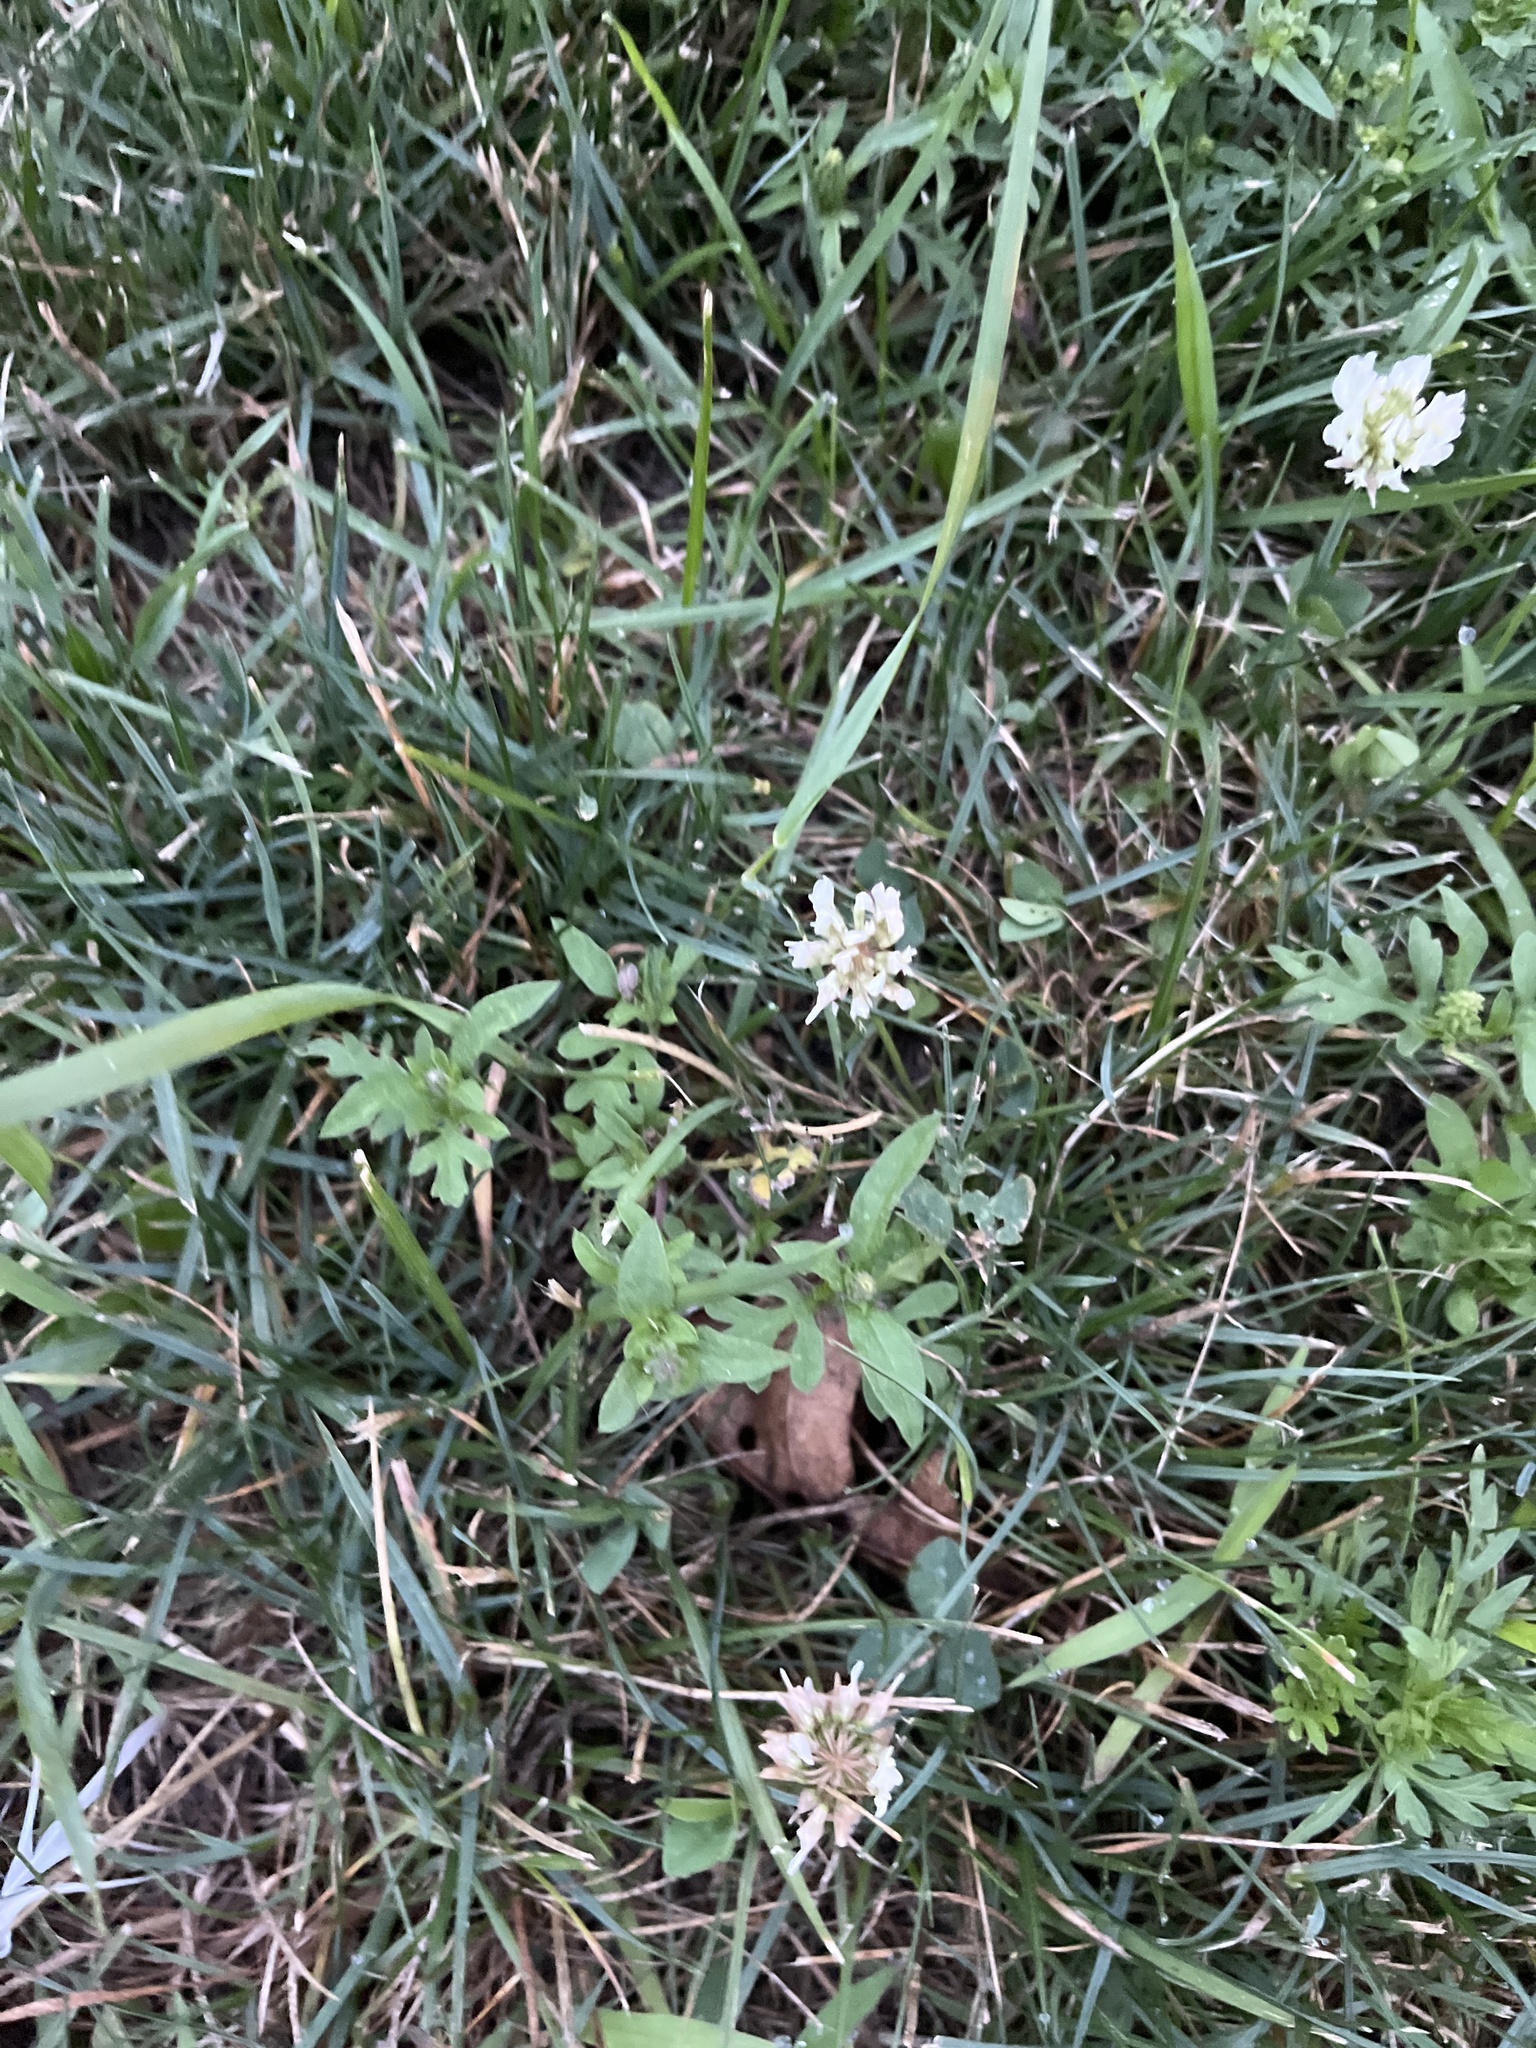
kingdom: Plantae
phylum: Tracheophyta
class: Magnoliopsida
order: Fabales
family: Fabaceae
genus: Trifolium
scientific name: Trifolium repens
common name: White clover
